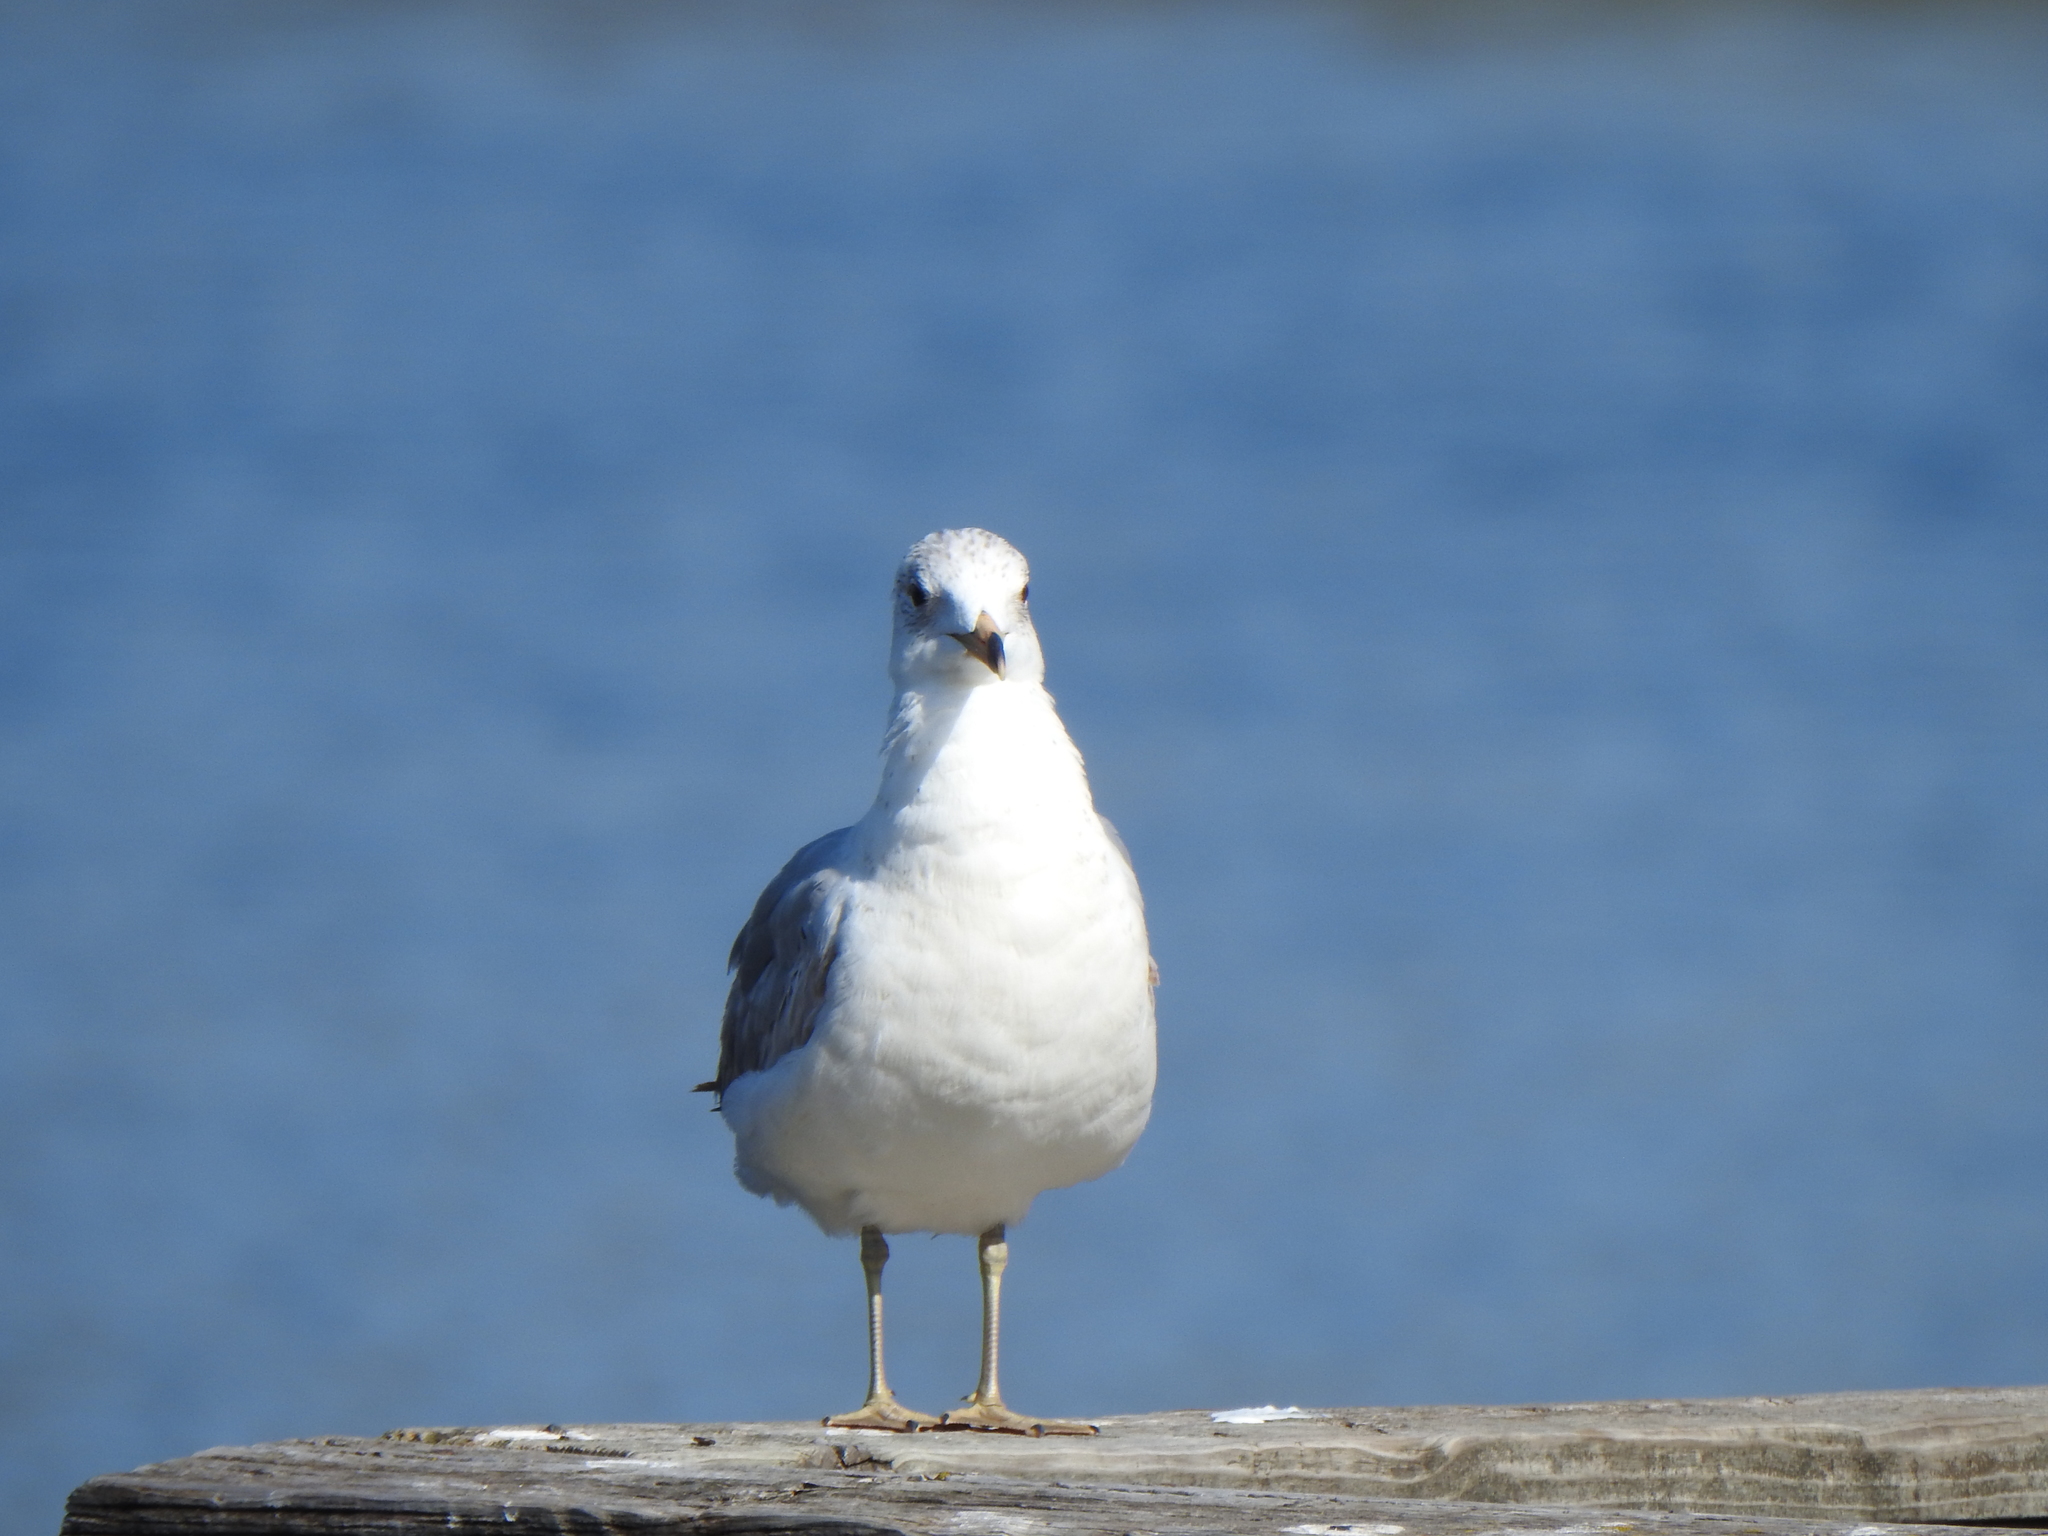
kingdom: Animalia
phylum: Chordata
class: Aves
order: Charadriiformes
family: Laridae
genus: Larus
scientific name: Larus delawarensis
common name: Ring-billed gull
